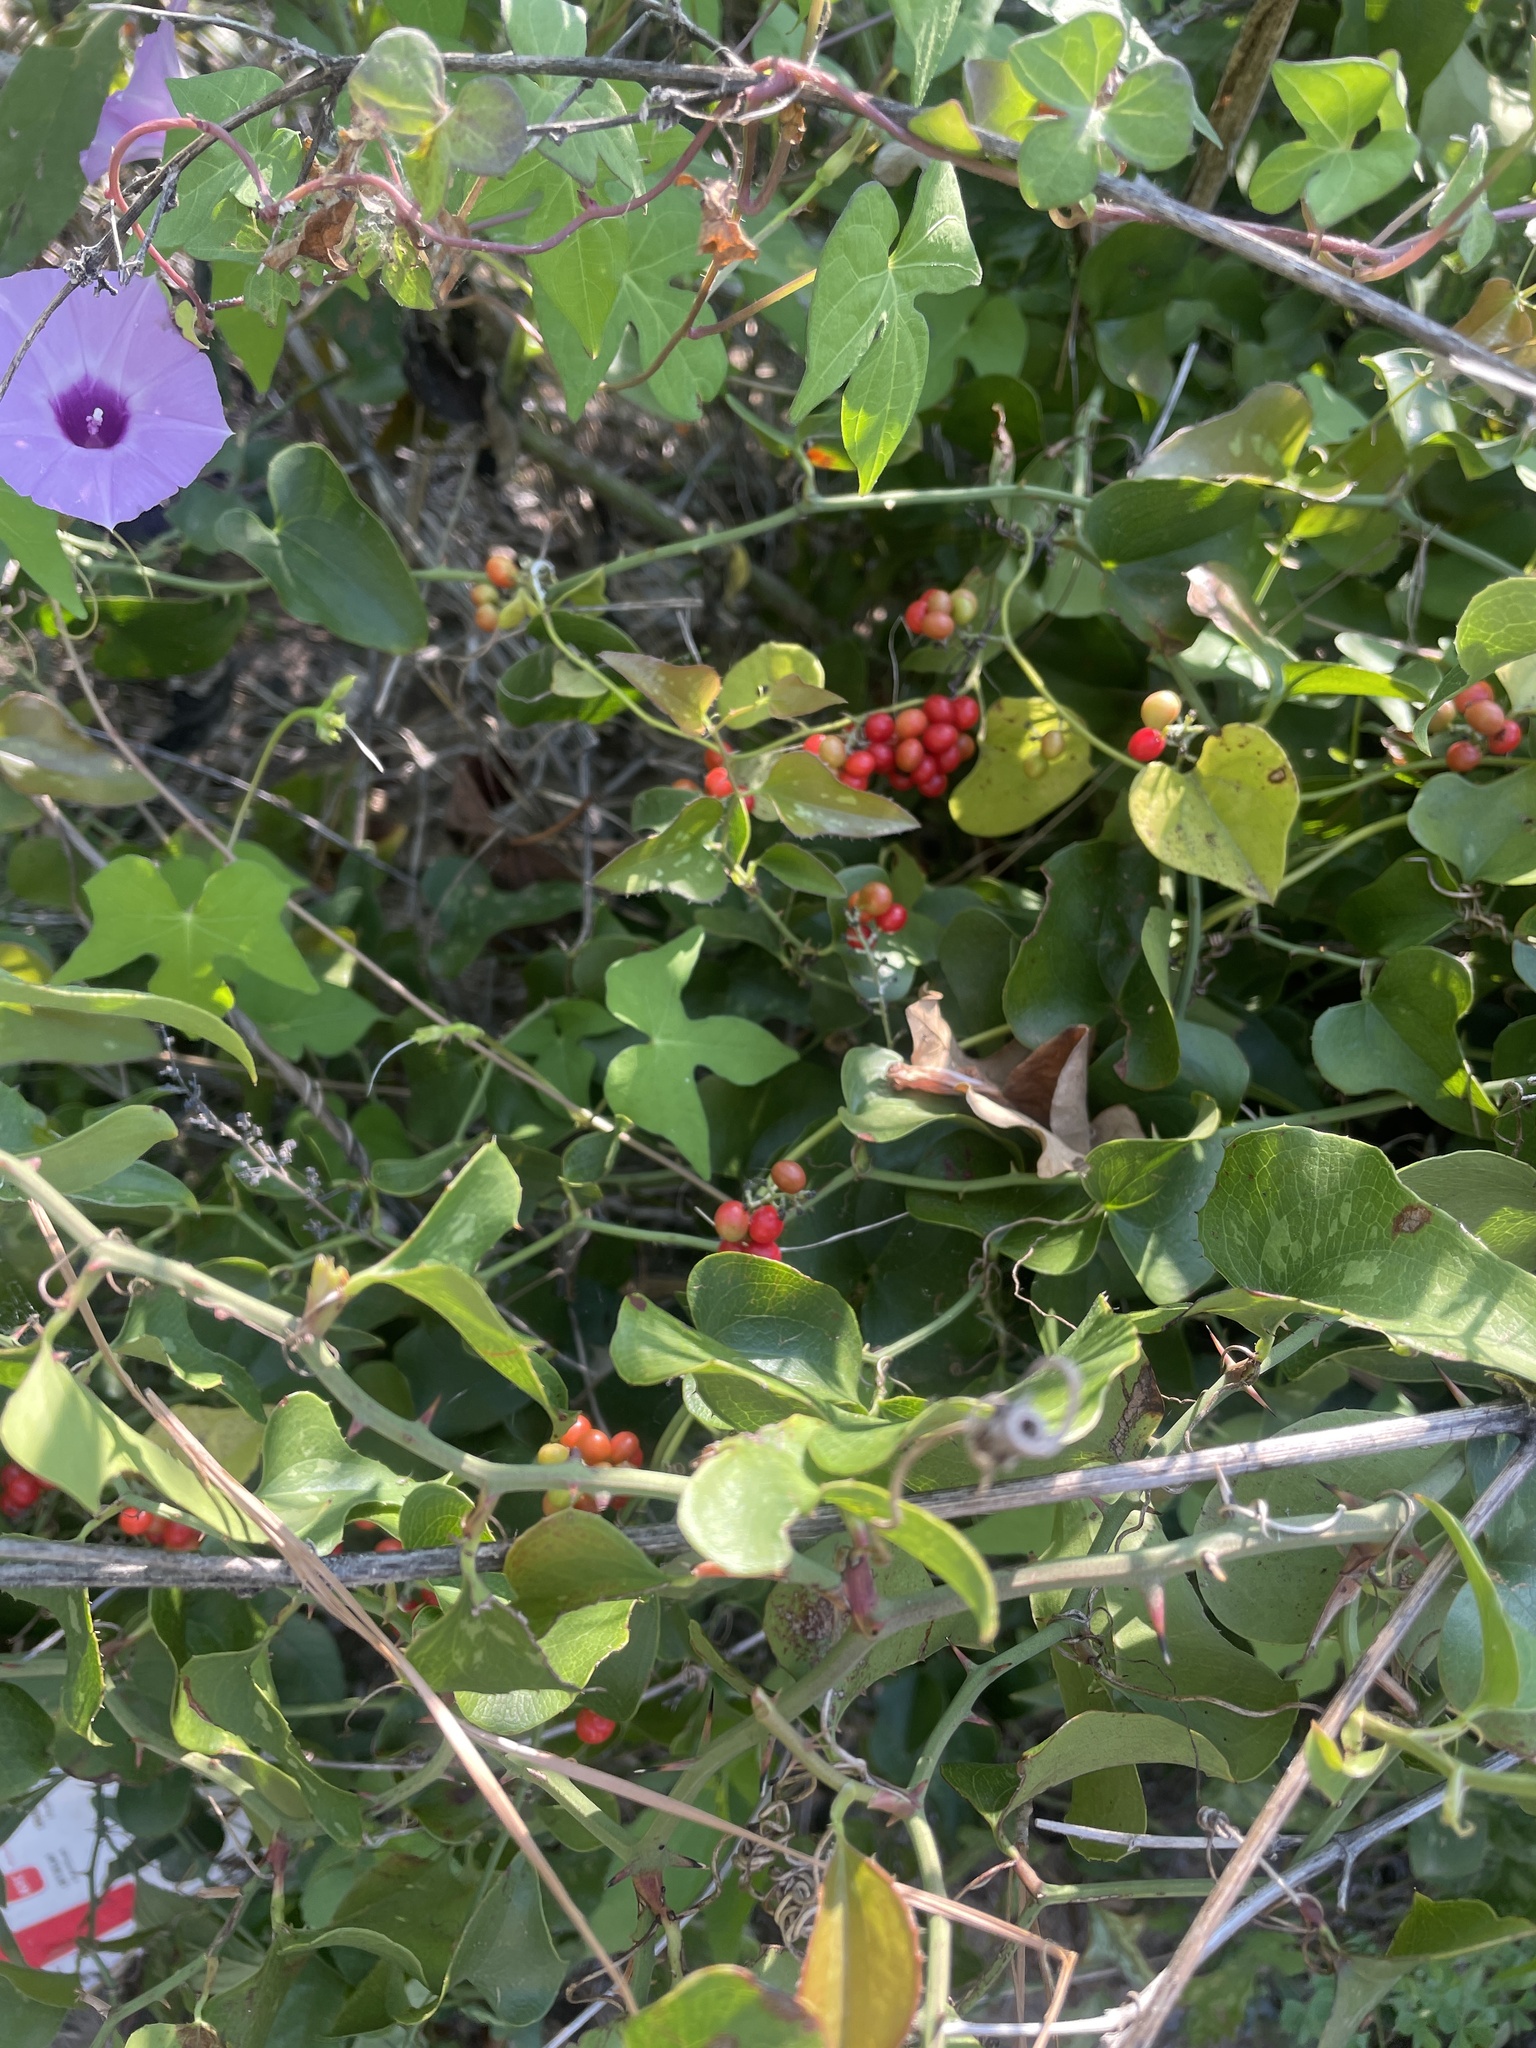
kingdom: Plantae
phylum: Tracheophyta
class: Magnoliopsida
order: Ranunculales
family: Menispermaceae
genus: Cocculus
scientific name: Cocculus carolinus
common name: Carolina moonseed
